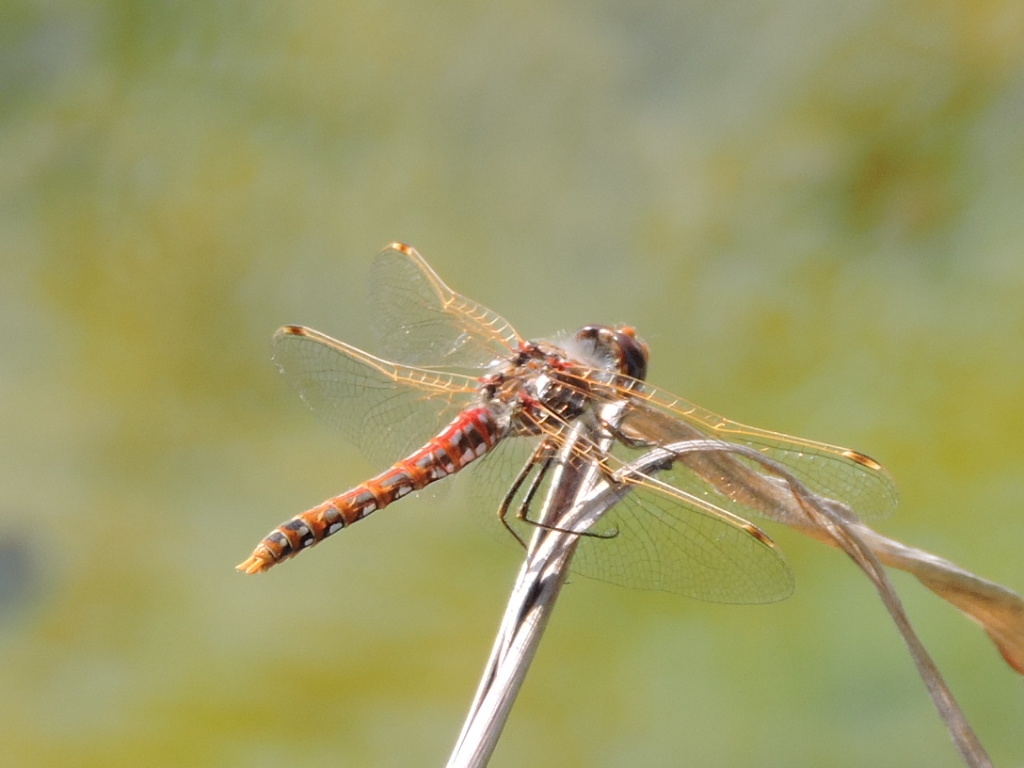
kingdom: Animalia
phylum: Arthropoda
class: Insecta
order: Odonata
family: Libellulidae
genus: Sympetrum
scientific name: Sympetrum corruptum
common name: Variegated meadowhawk
